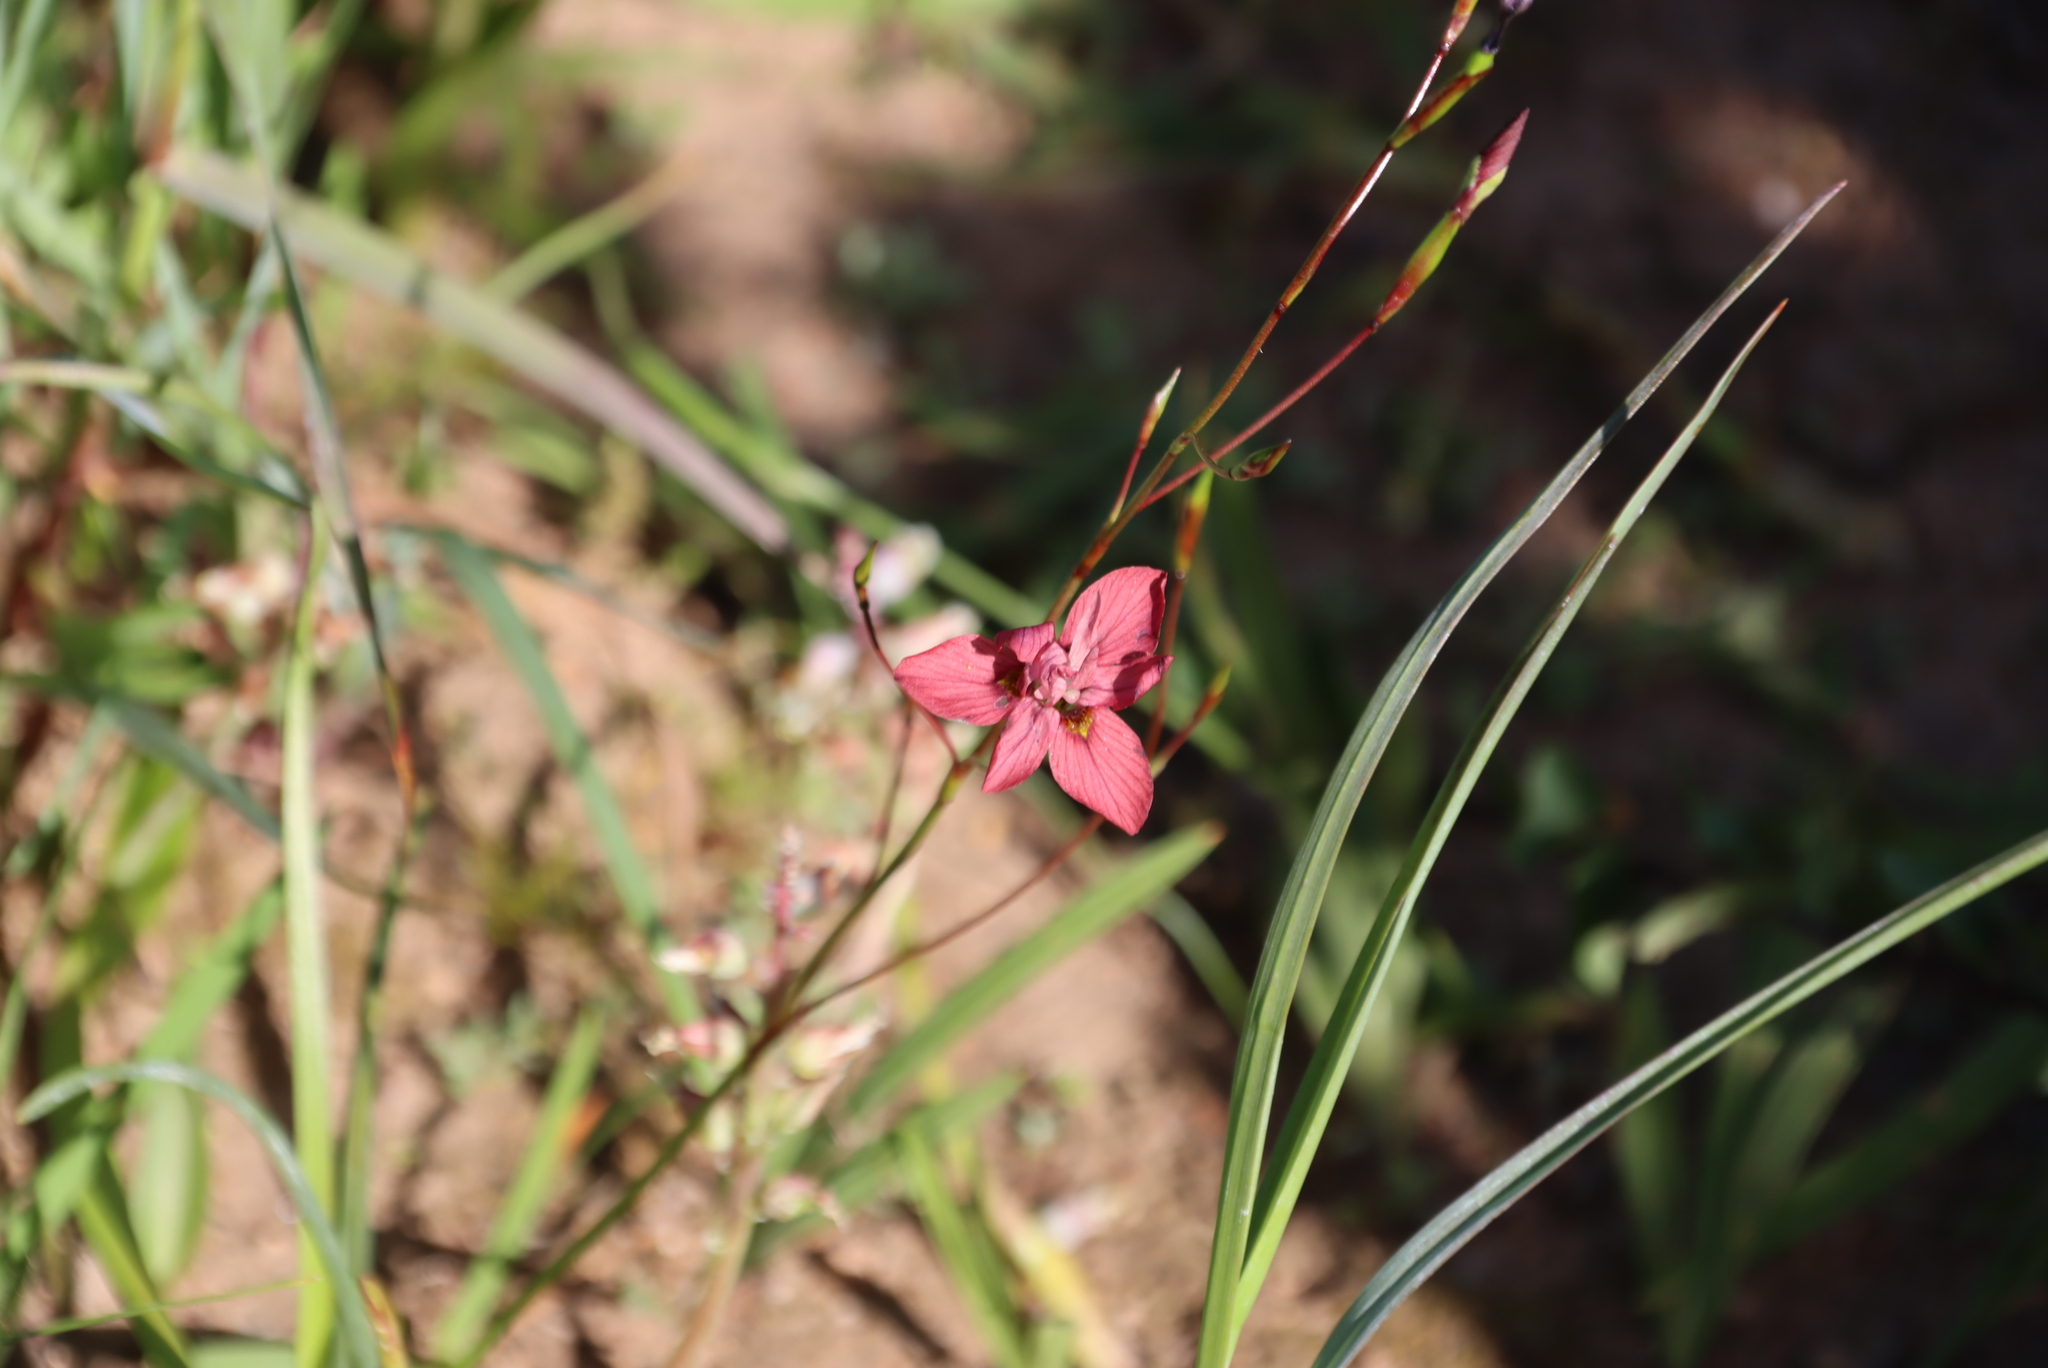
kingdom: Plantae
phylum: Tracheophyta
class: Liliopsida
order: Asparagales
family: Iridaceae
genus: Moraea
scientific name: Moraea gawleri
